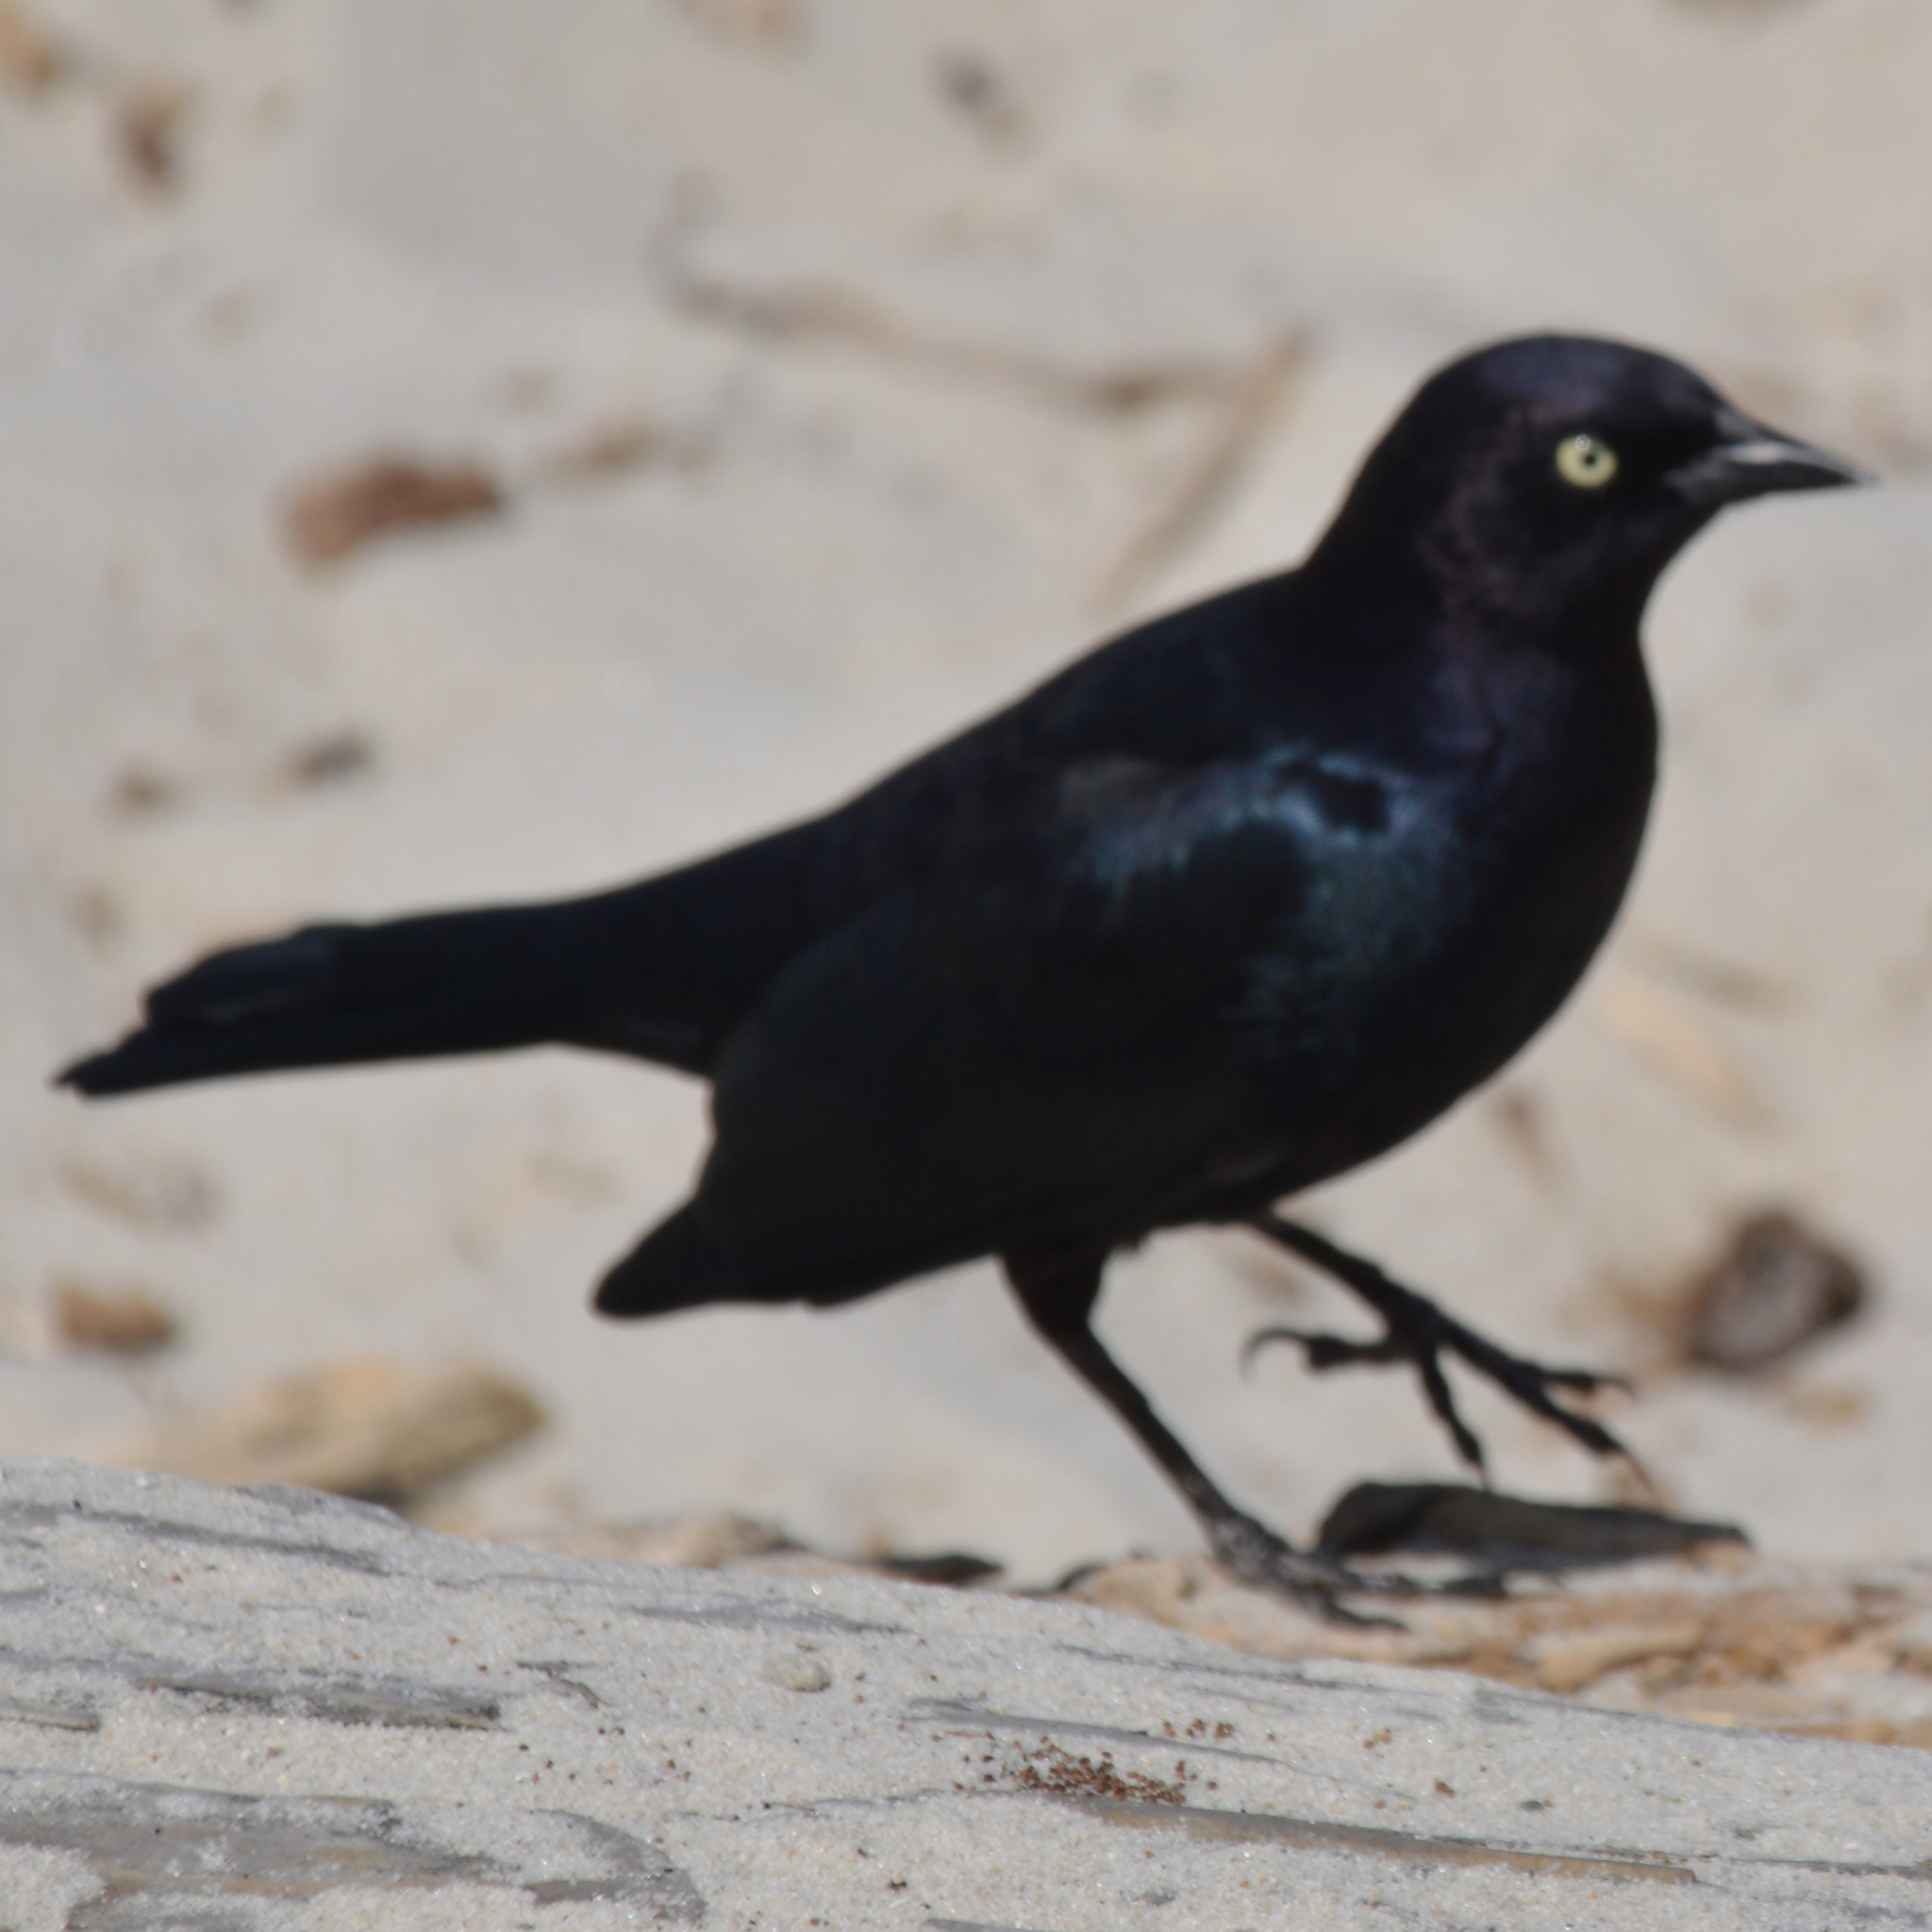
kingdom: Animalia
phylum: Chordata
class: Aves
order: Passeriformes
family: Icteridae
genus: Euphagus
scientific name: Euphagus cyanocephalus
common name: Brewer's blackbird
